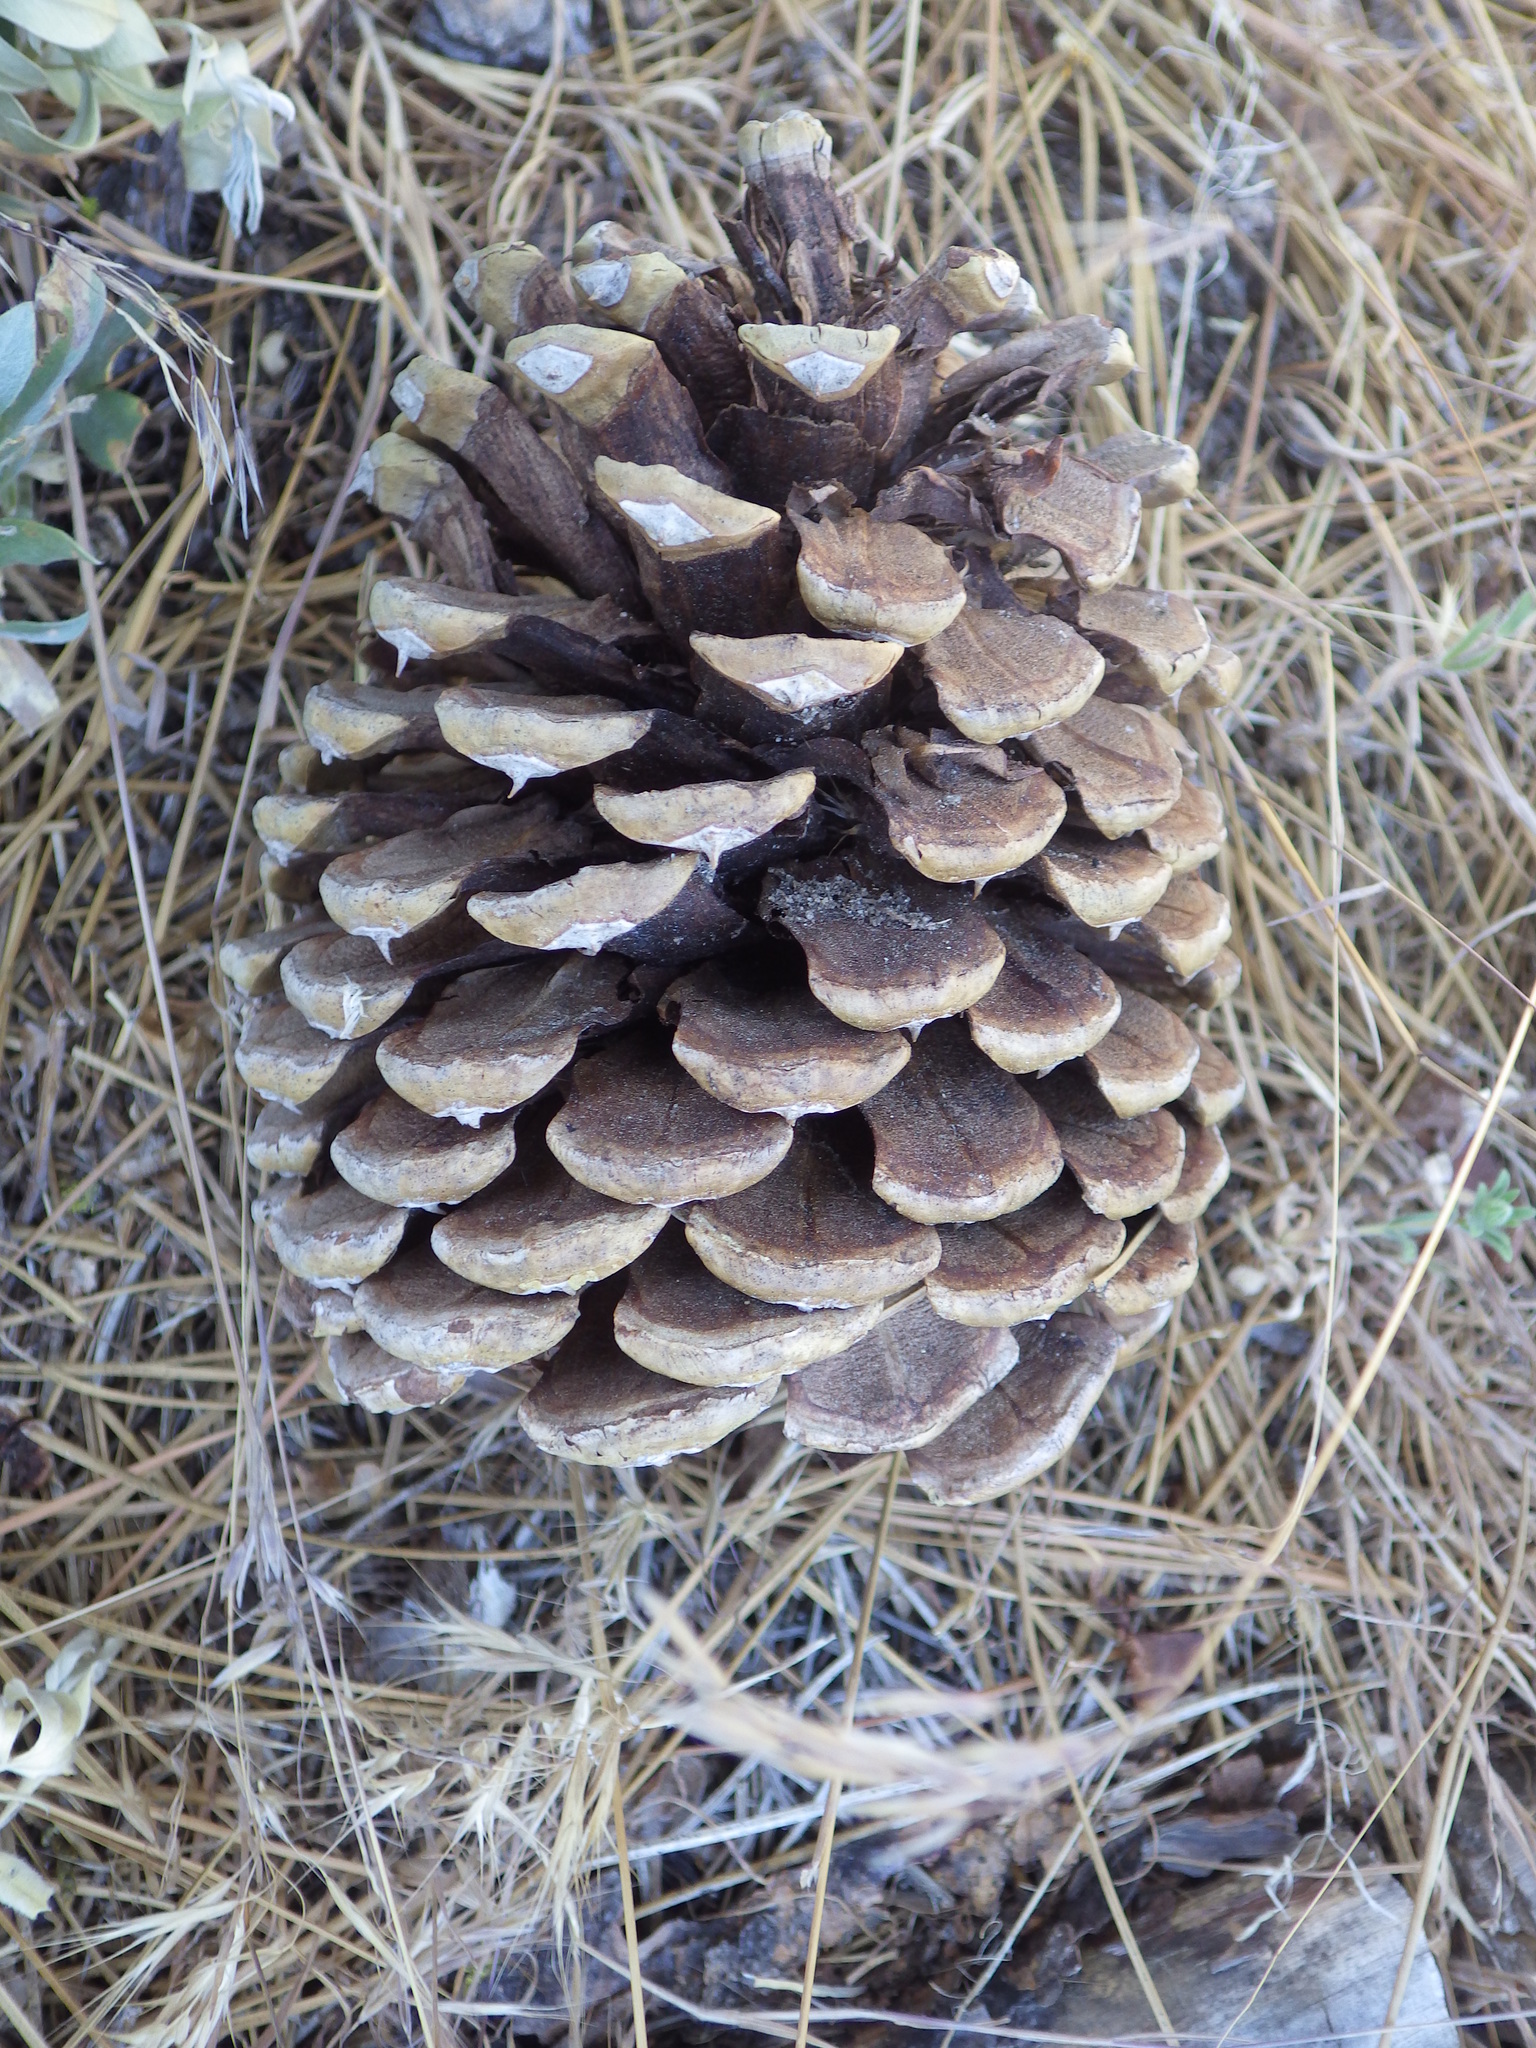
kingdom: Plantae
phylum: Tracheophyta
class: Pinopsida
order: Pinales
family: Pinaceae
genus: Pinus
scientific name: Pinus ponderosa
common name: Western yellow-pine
